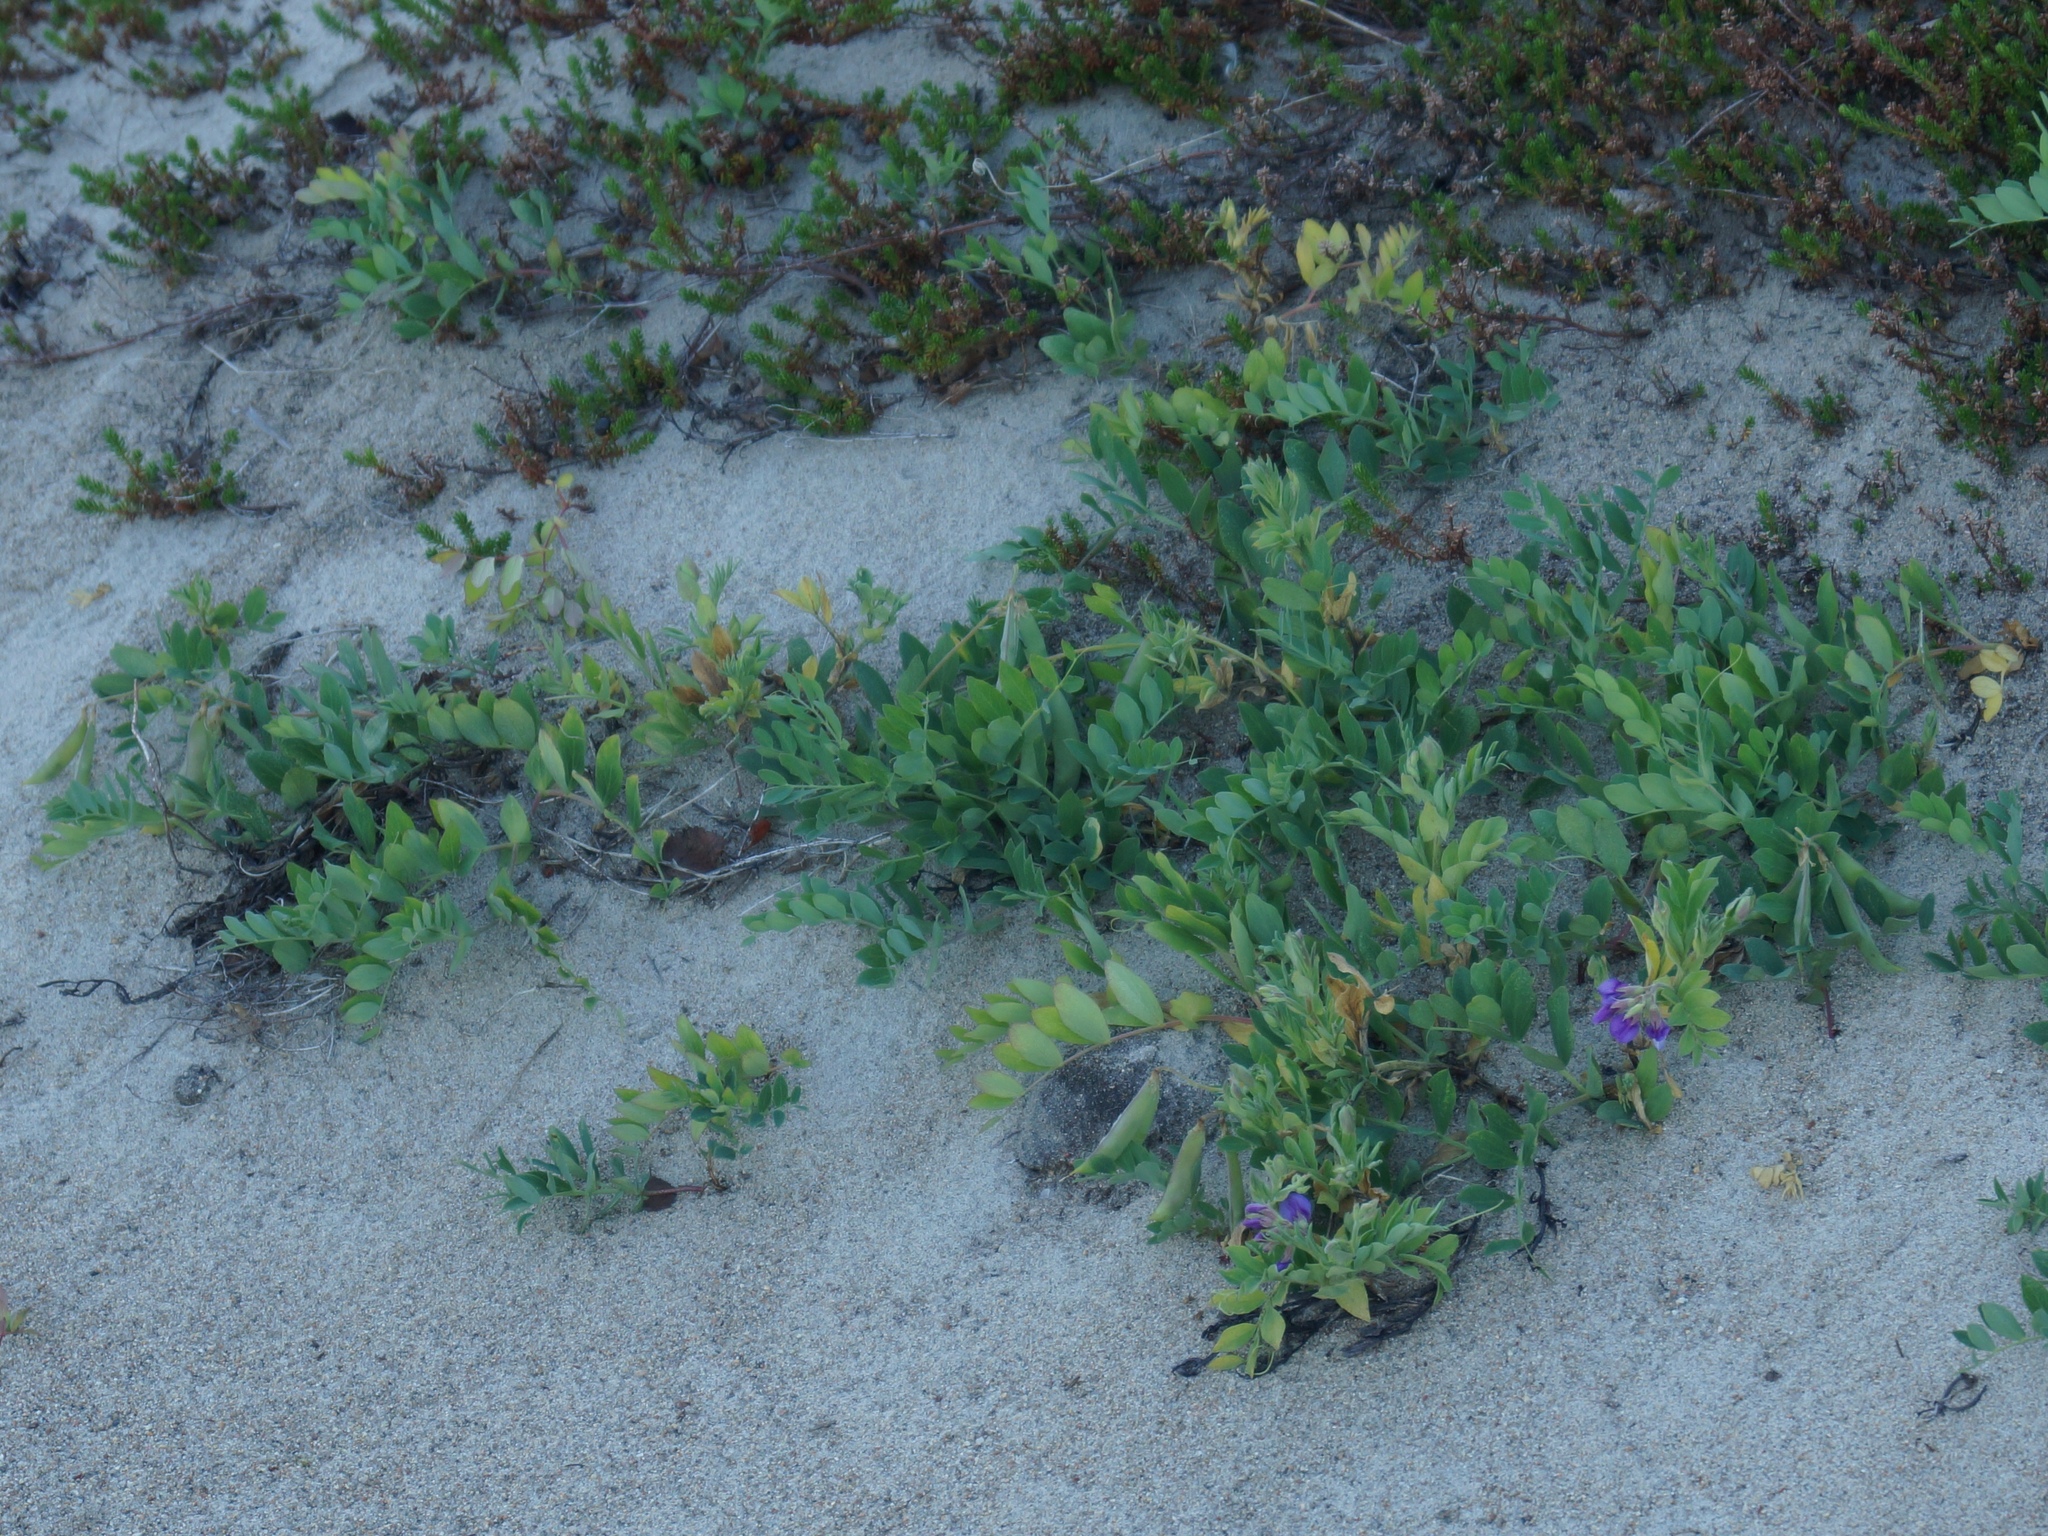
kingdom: Plantae
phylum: Tracheophyta
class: Magnoliopsida
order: Fabales
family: Fabaceae
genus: Lathyrus
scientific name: Lathyrus japonicus
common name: Sea pea
